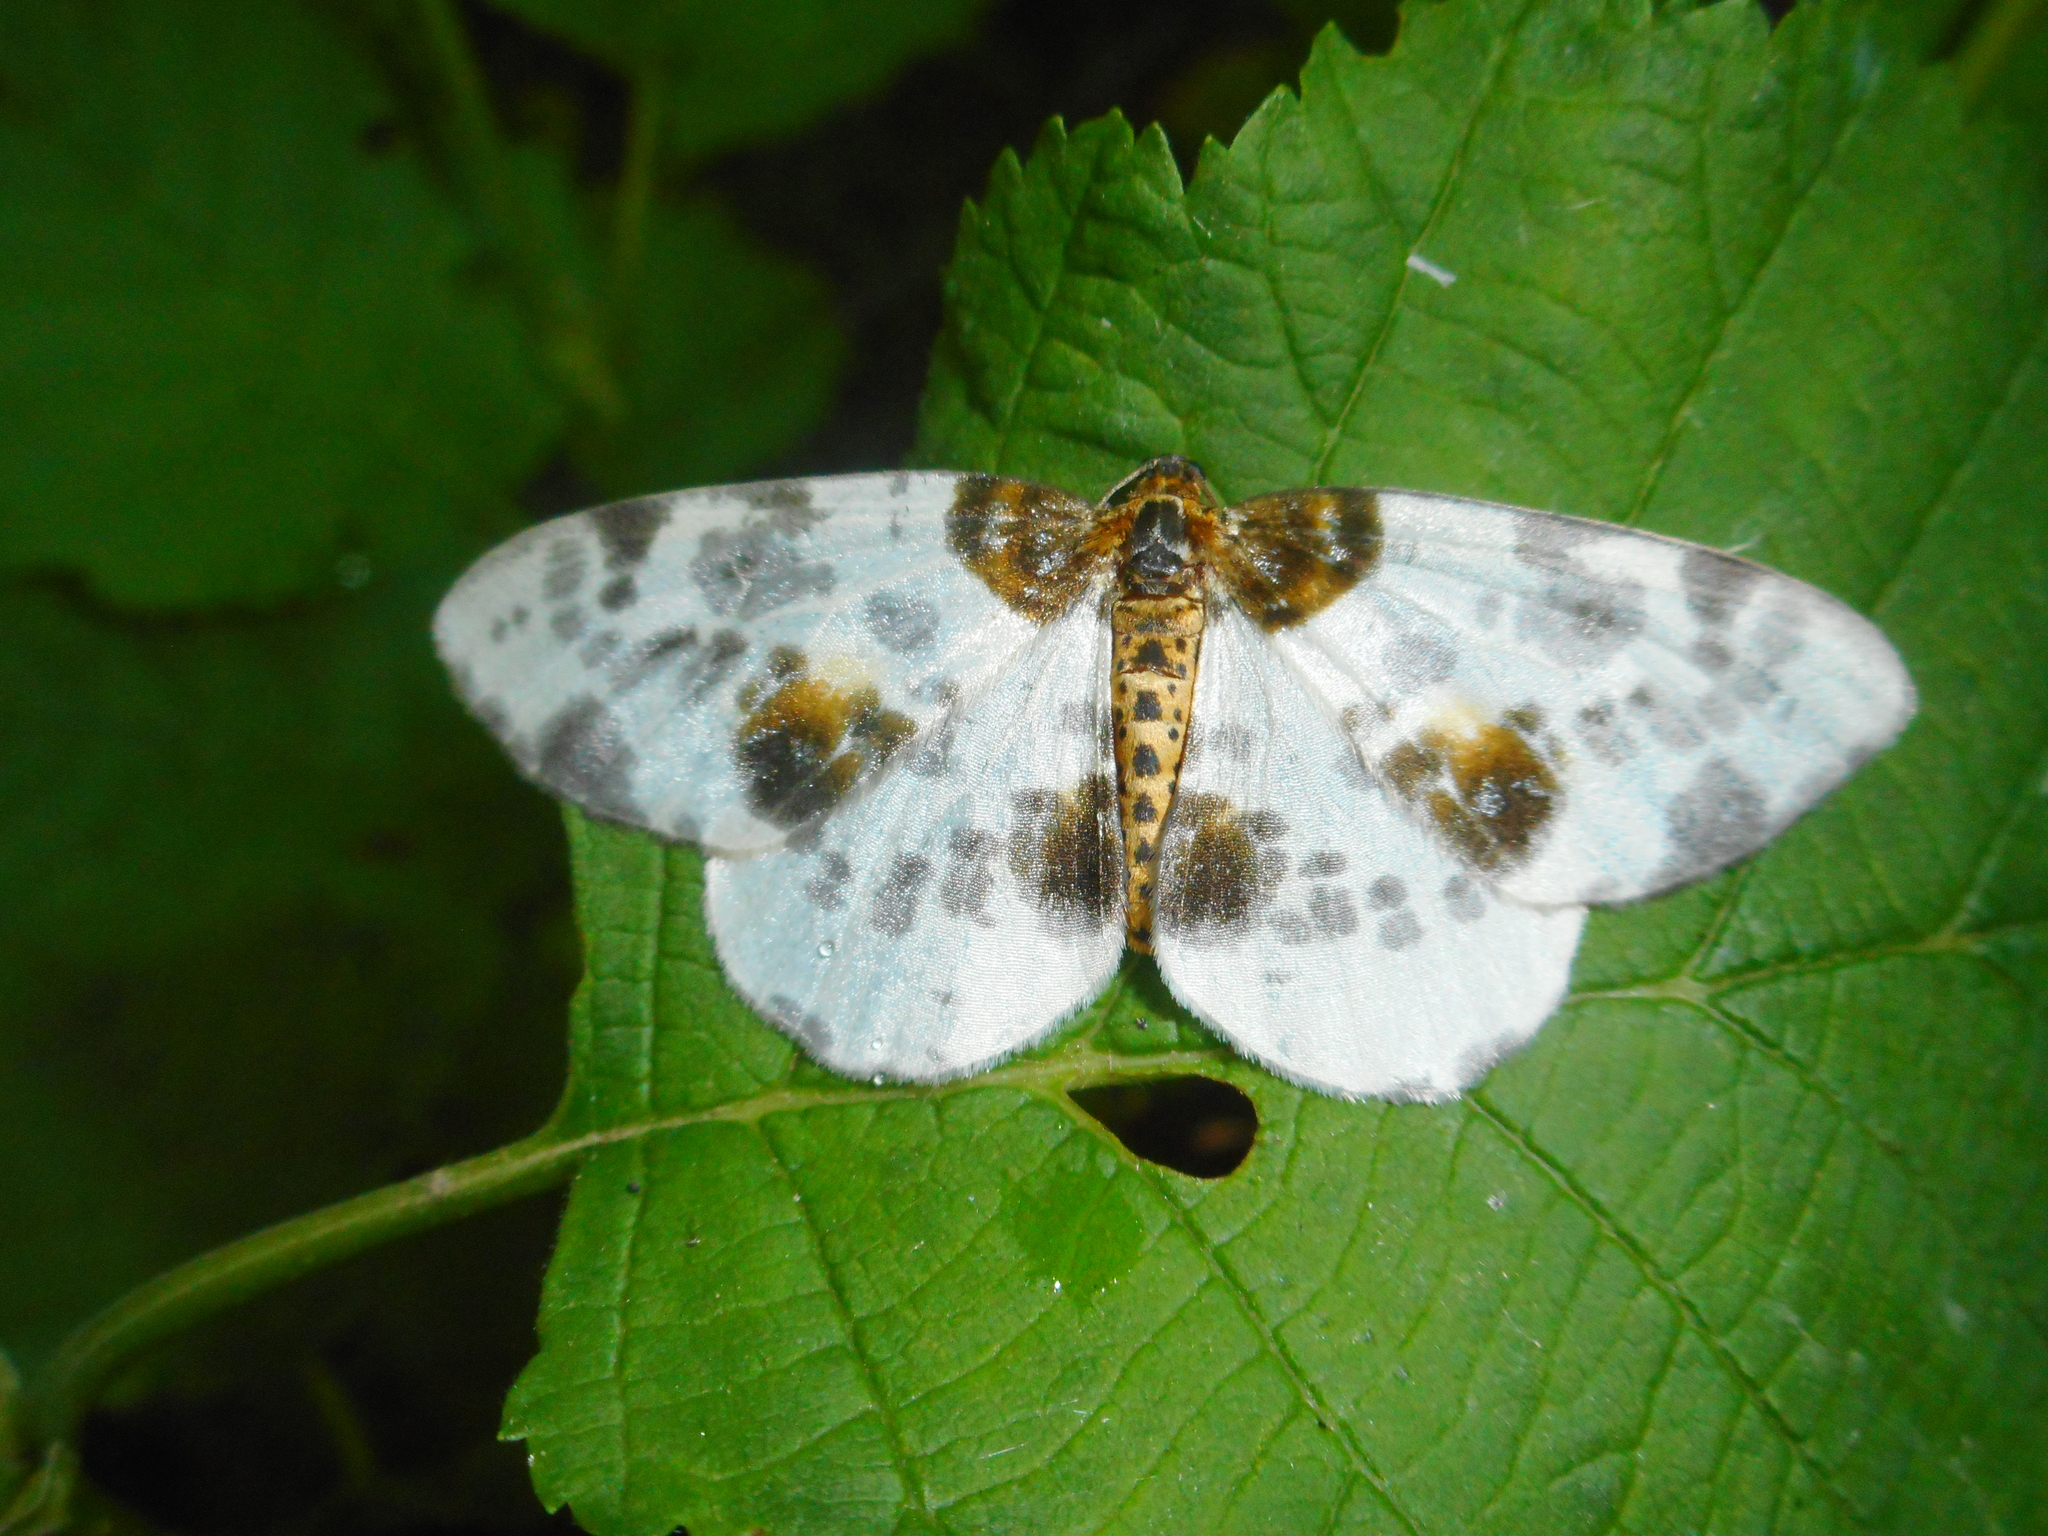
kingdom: Animalia
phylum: Arthropoda
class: Insecta
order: Lepidoptera
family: Geometridae
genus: Abraxas
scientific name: Abraxas sylvata
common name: Clouded magpie
